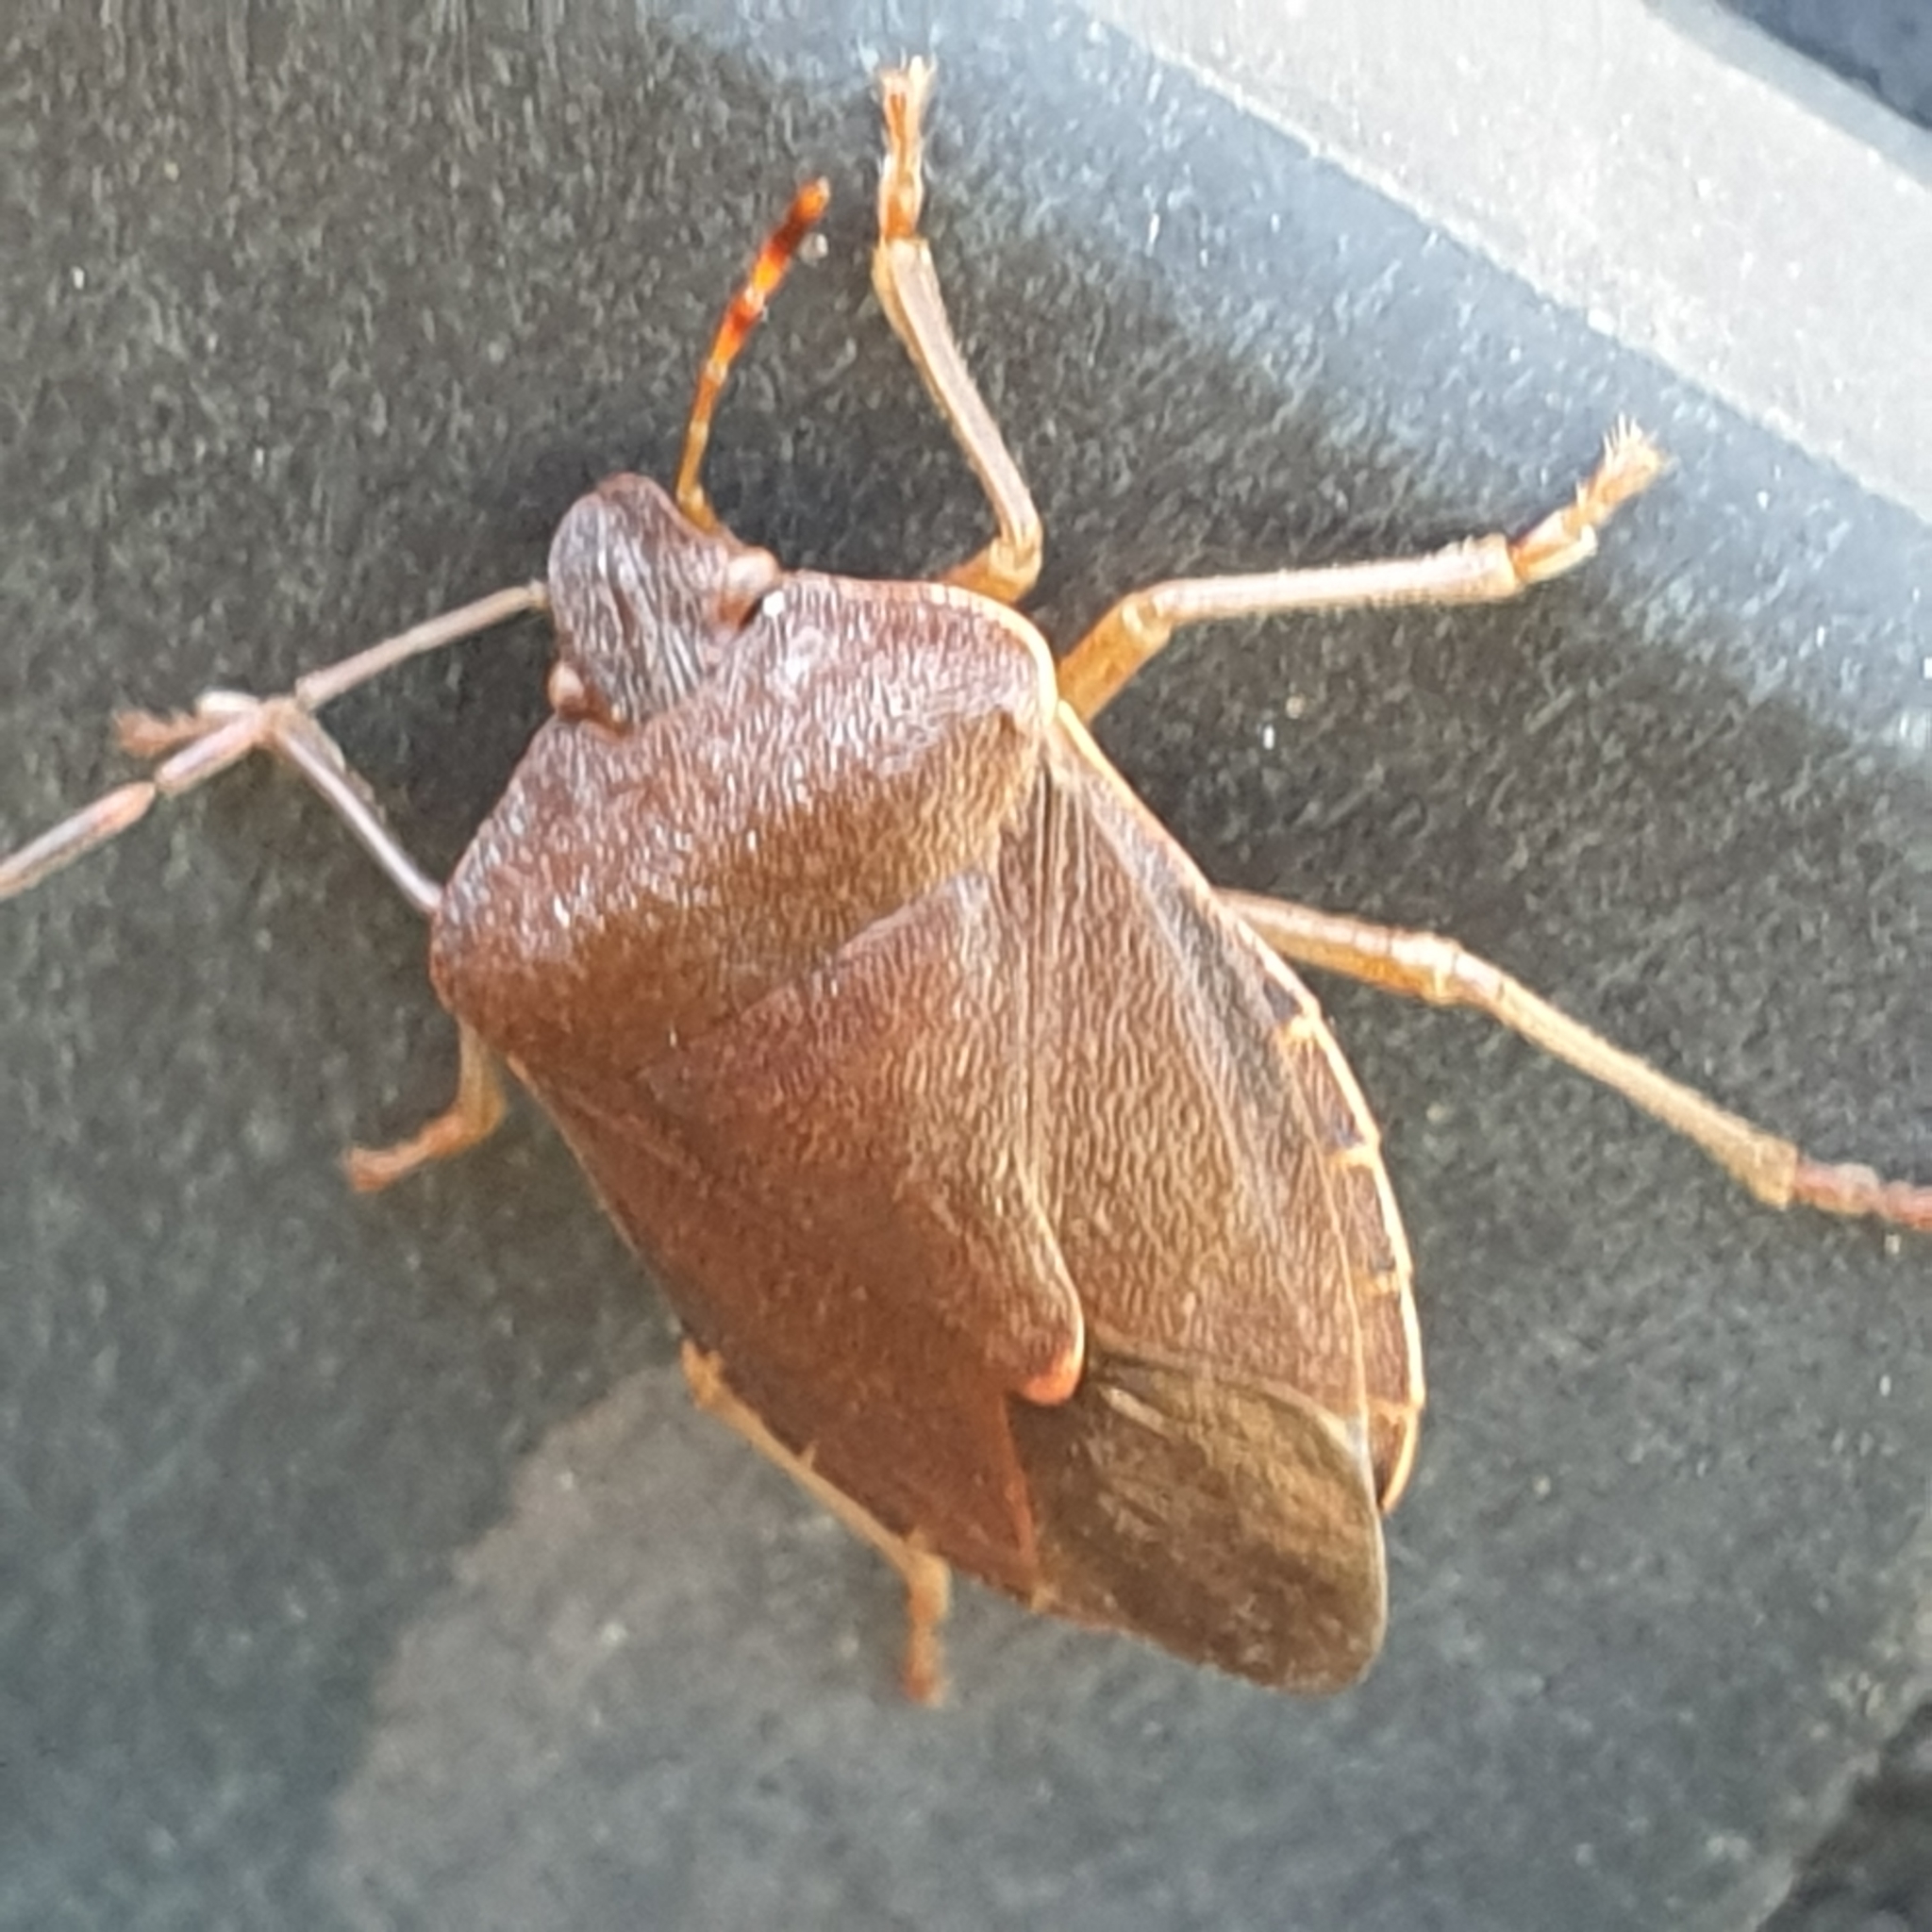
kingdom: Animalia
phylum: Arthropoda
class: Insecta
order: Hemiptera
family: Pentatomidae
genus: Palomena
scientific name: Palomena prasina
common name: Green shieldbug
